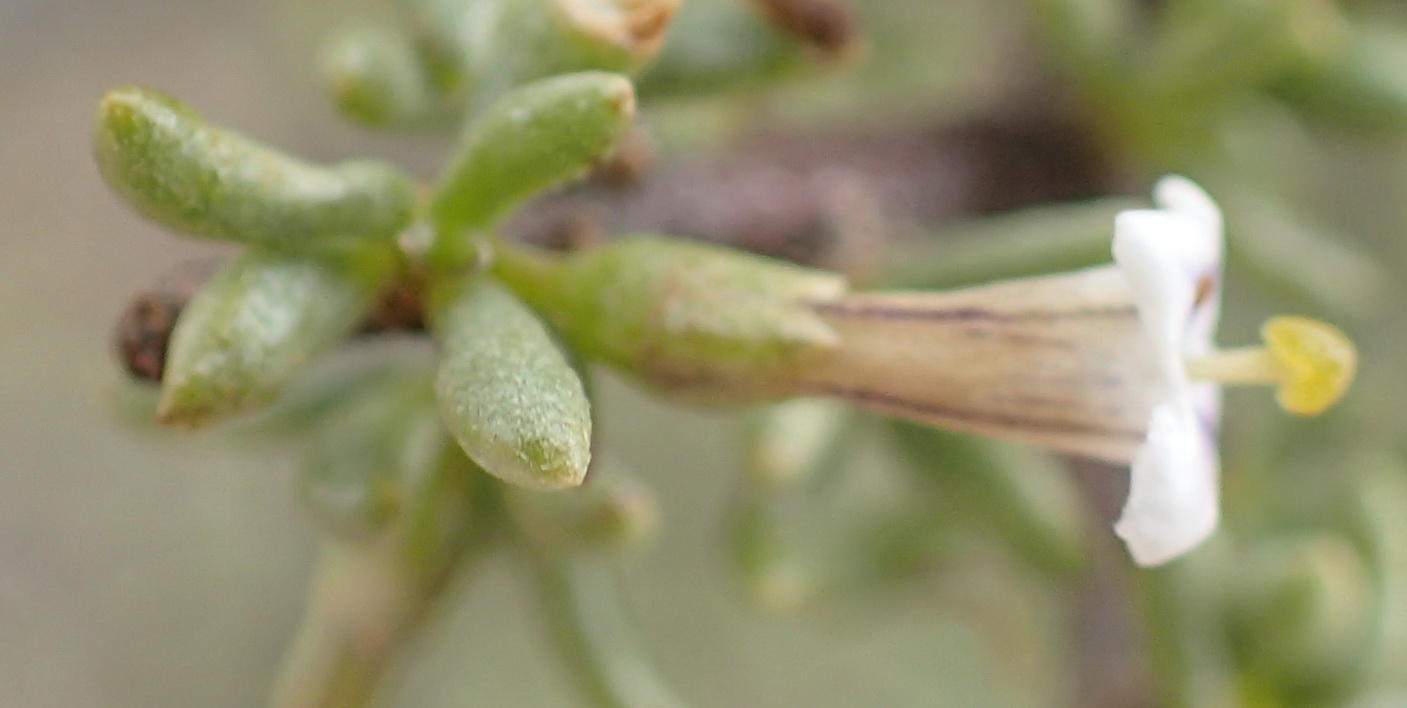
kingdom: Plantae
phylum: Tracheophyta
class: Magnoliopsida
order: Solanales
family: Solanaceae
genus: Lycium
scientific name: Lycium horridum
